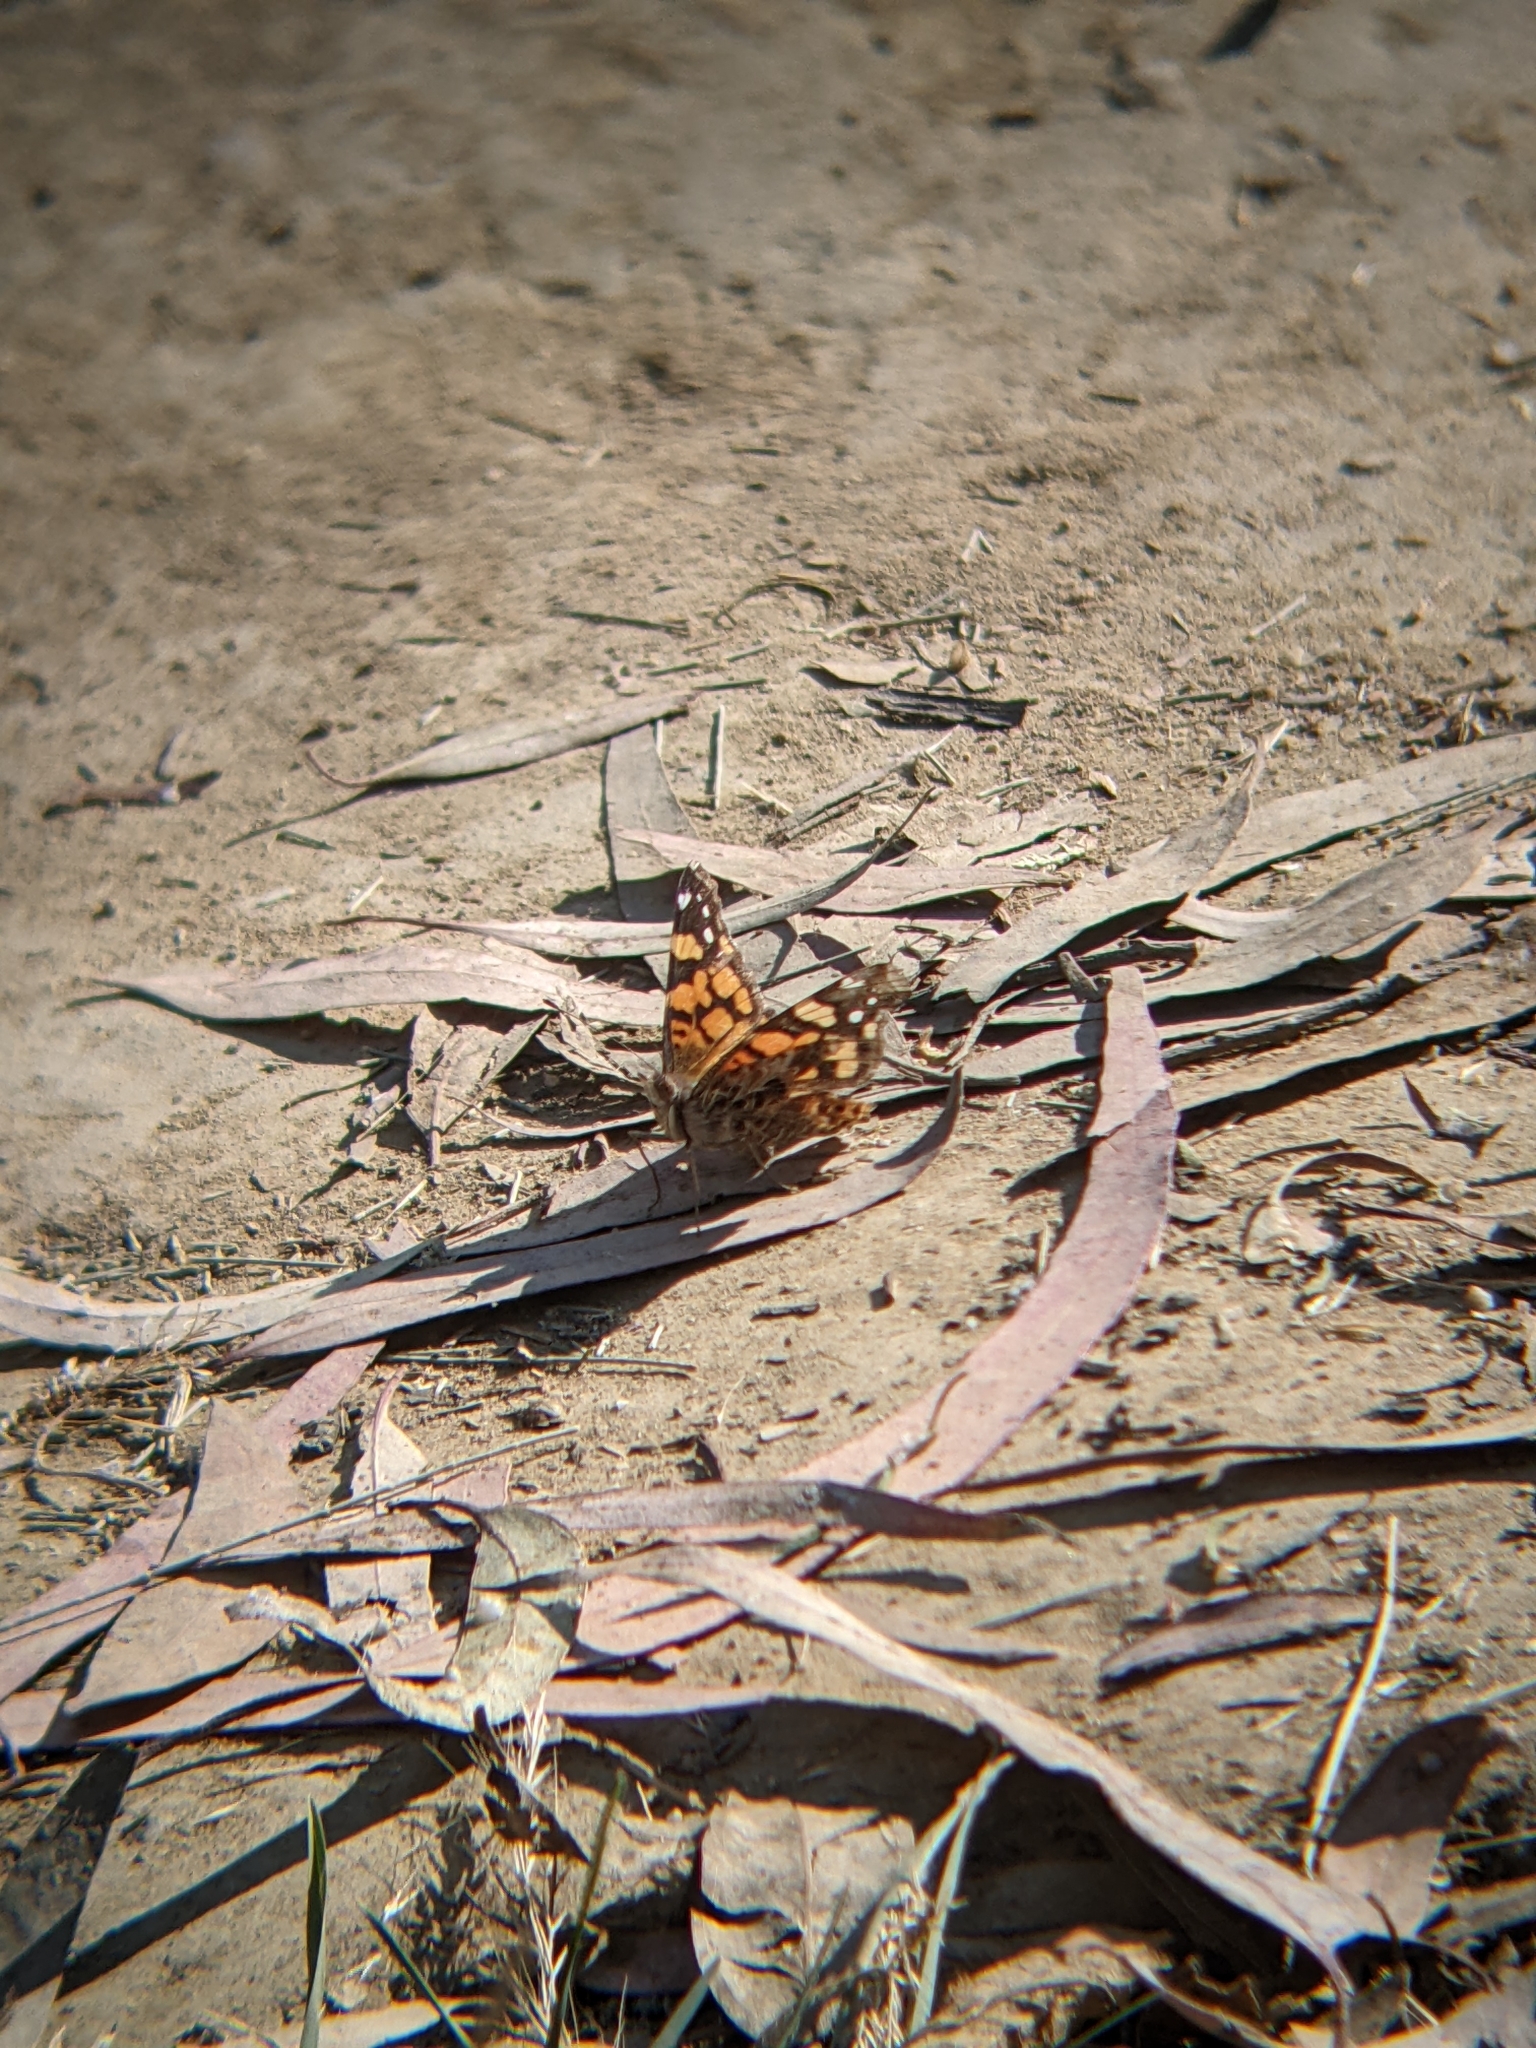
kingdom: Animalia
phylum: Arthropoda
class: Insecta
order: Lepidoptera
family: Nymphalidae
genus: Vanessa
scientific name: Vanessa annabella
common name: West coast lady
